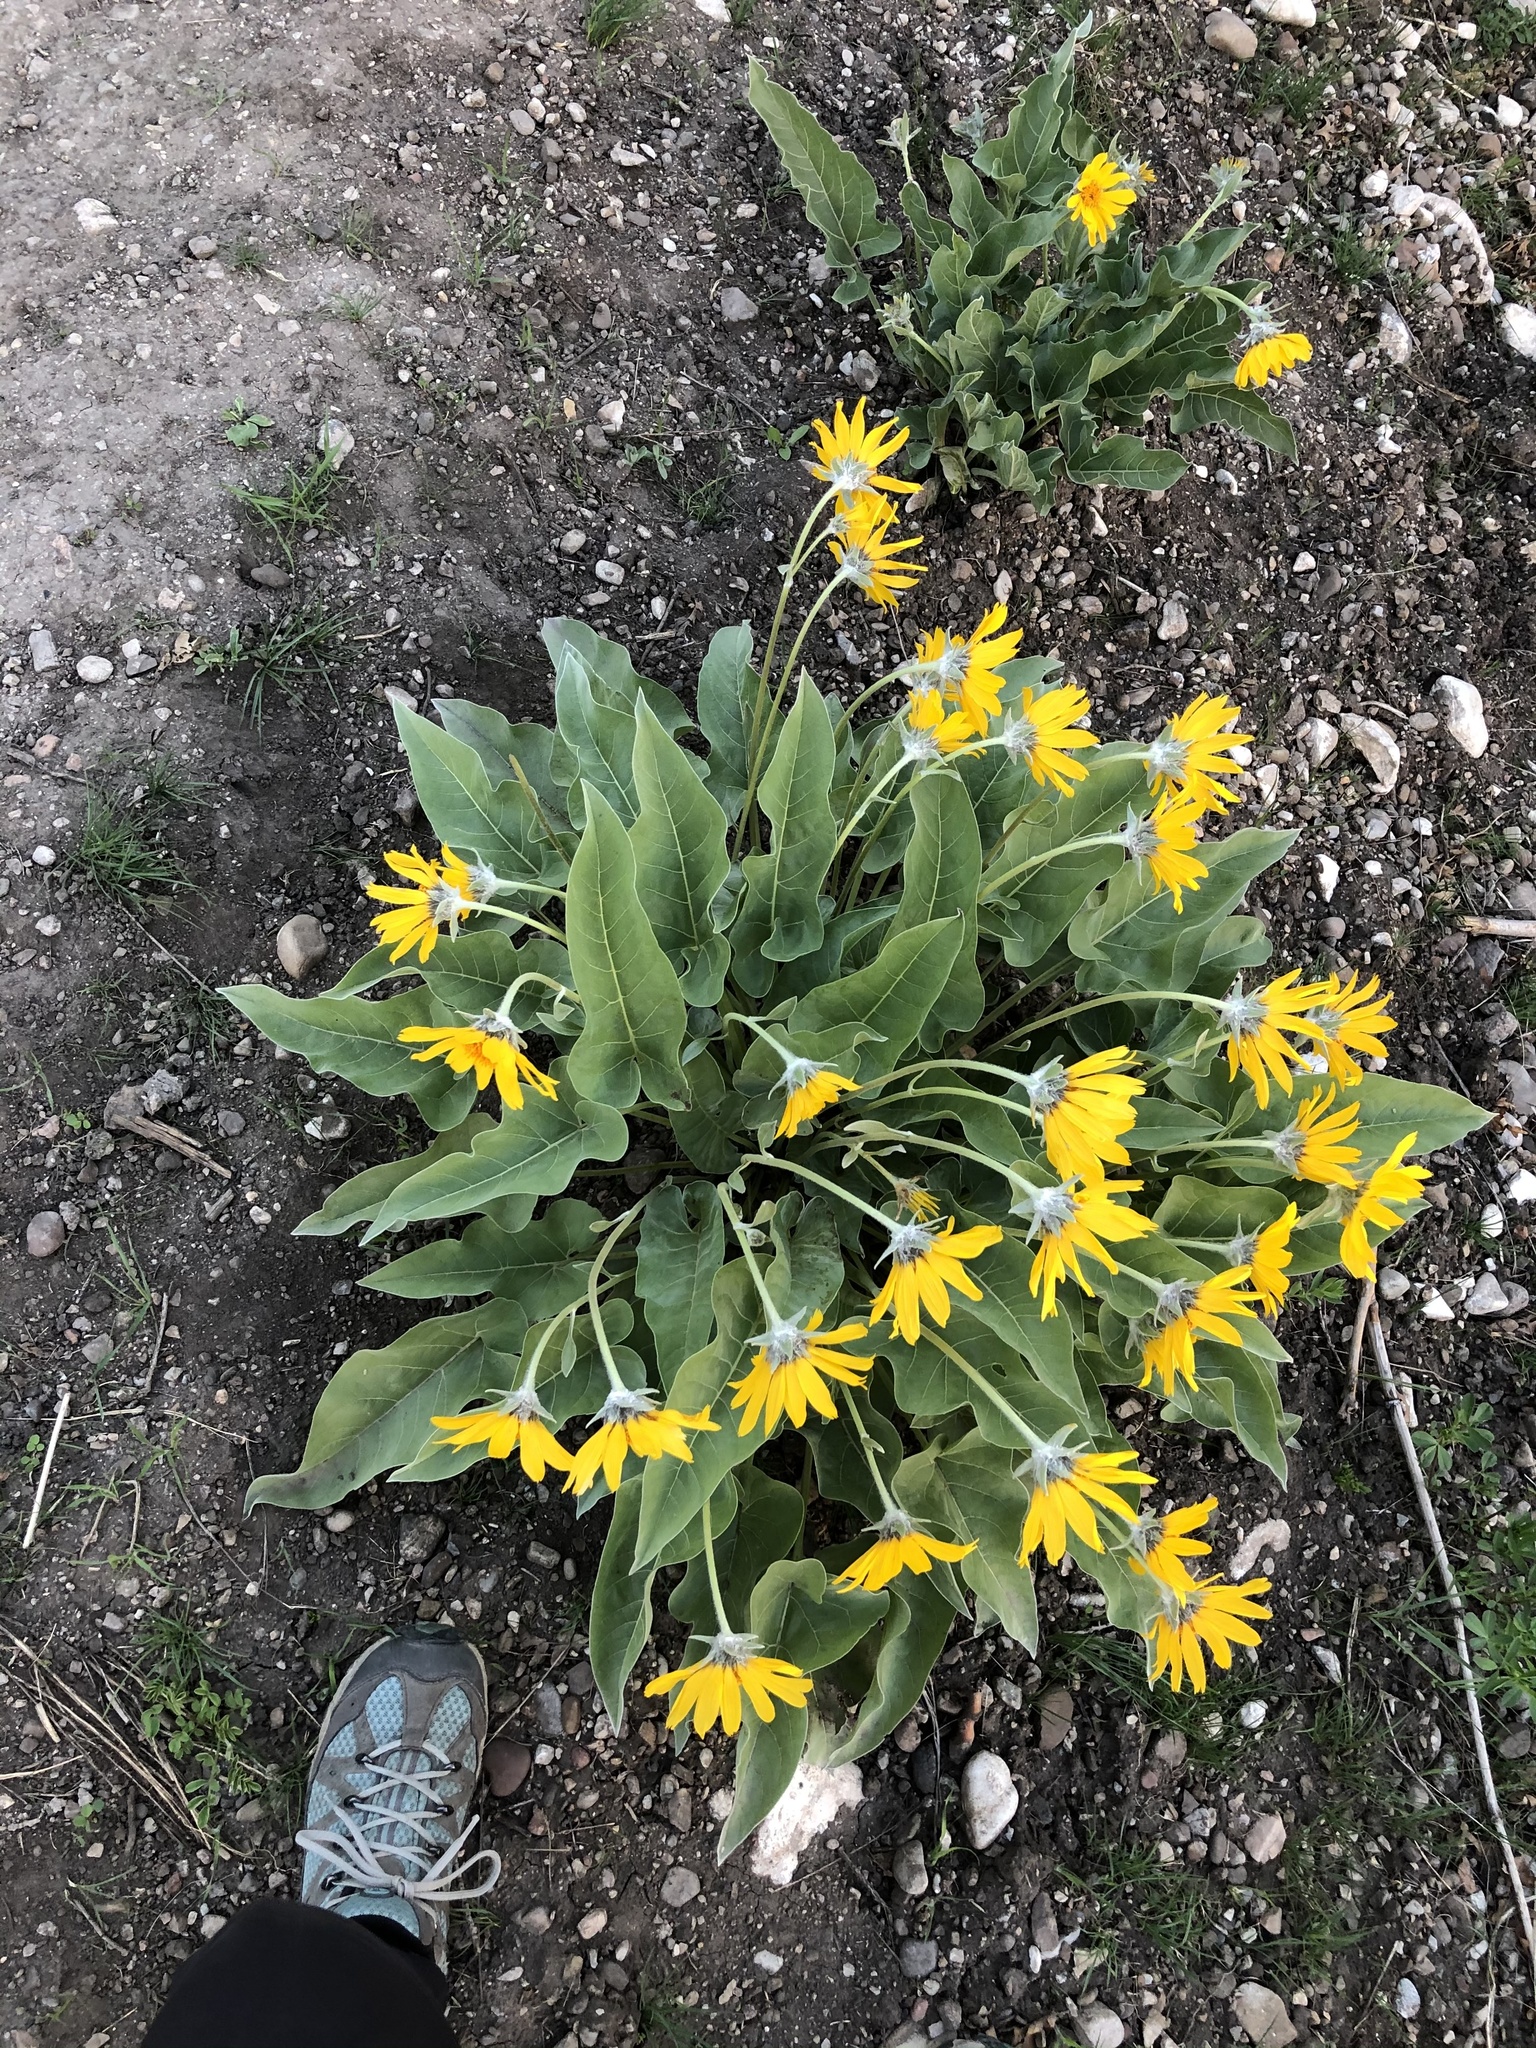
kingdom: Plantae
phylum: Tracheophyta
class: Magnoliopsida
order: Asterales
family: Asteraceae
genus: Wyethia
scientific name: Wyethia sagittata
